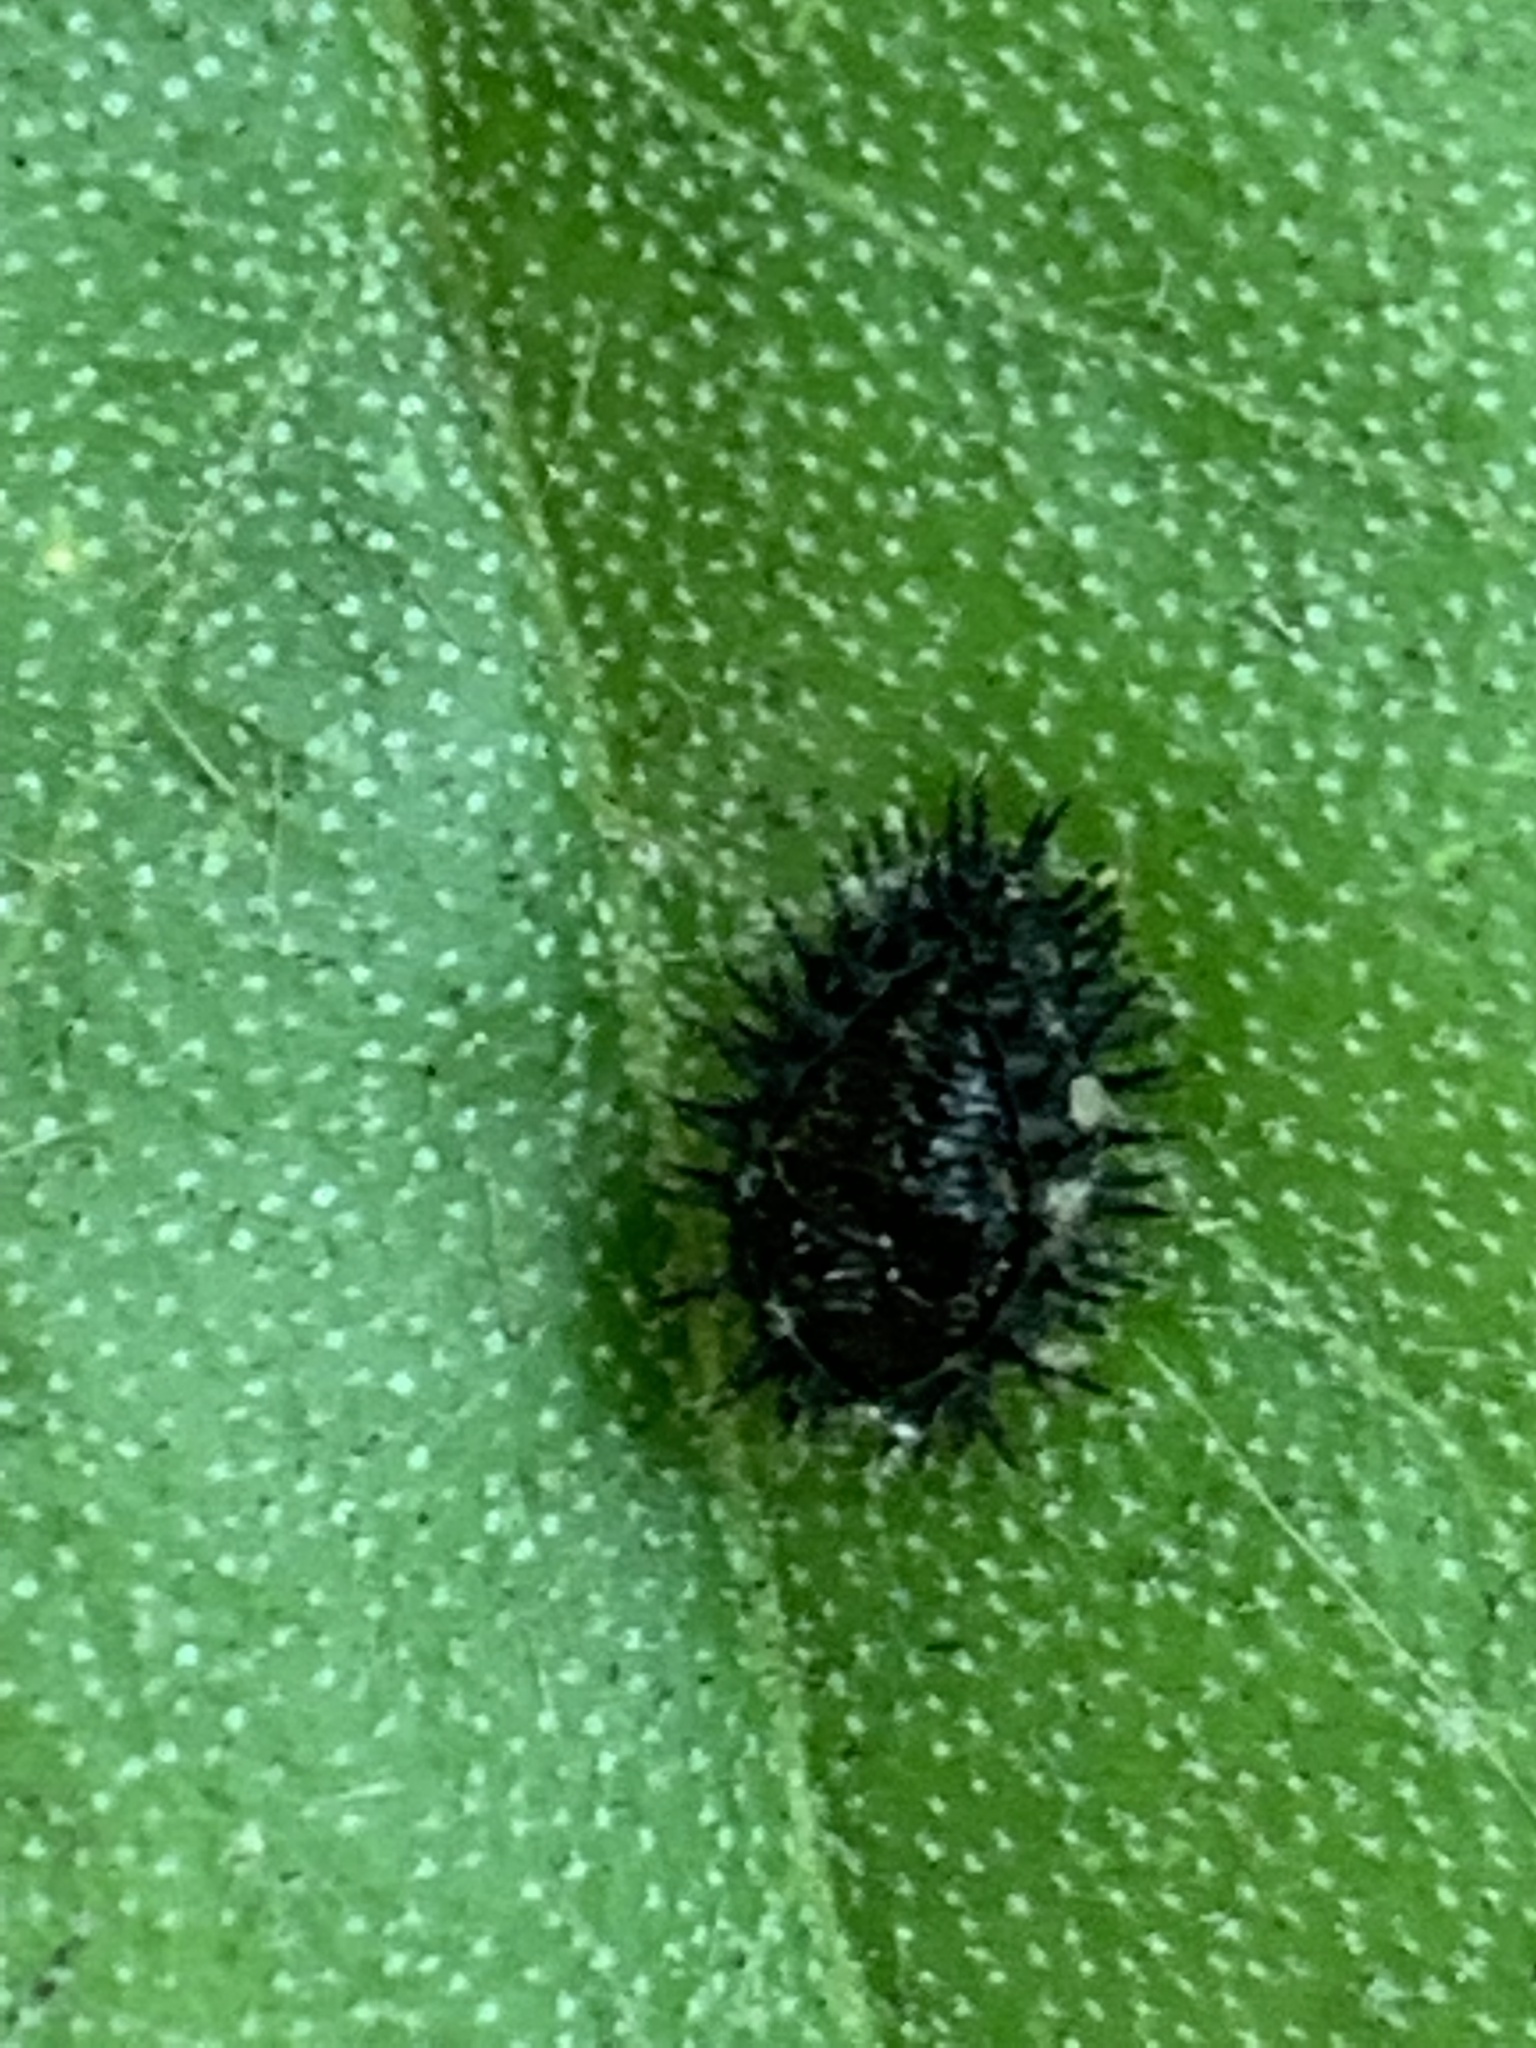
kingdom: Animalia
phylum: Arthropoda
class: Insecta
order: Coleoptera
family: Coccinellidae
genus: Chilocorus
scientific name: Chilocorus renipustulatus
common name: Kidney-spot ladybird
